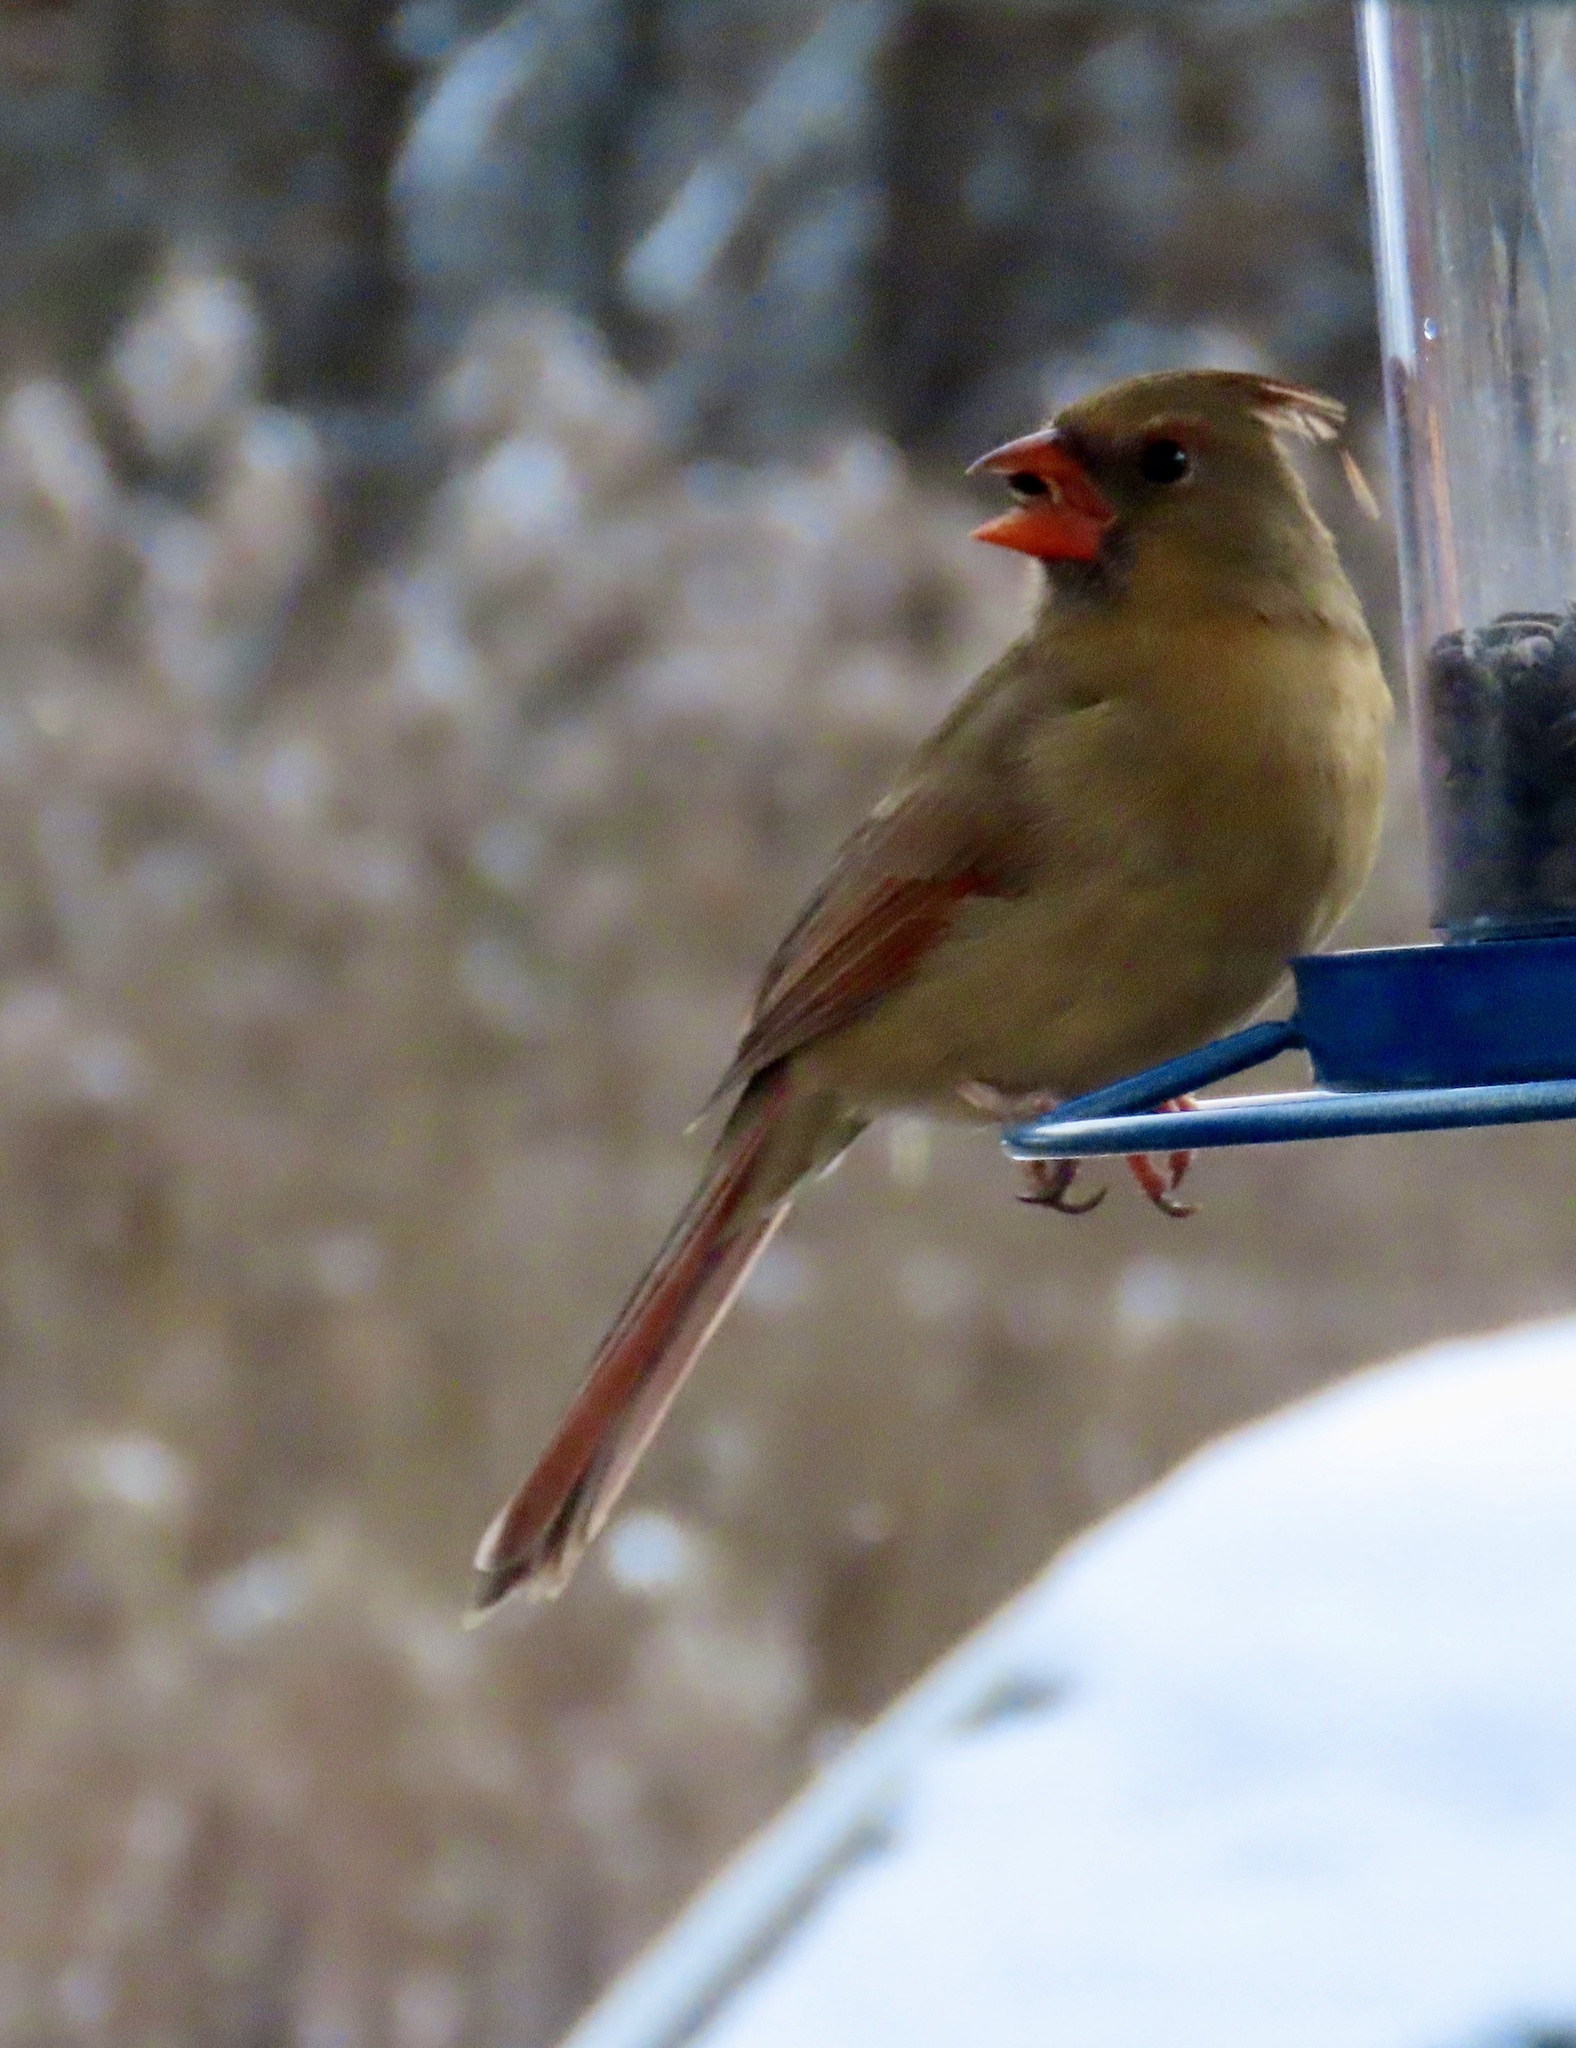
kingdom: Animalia
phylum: Chordata
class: Aves
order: Passeriformes
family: Cardinalidae
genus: Cardinalis
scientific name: Cardinalis cardinalis
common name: Northern cardinal
